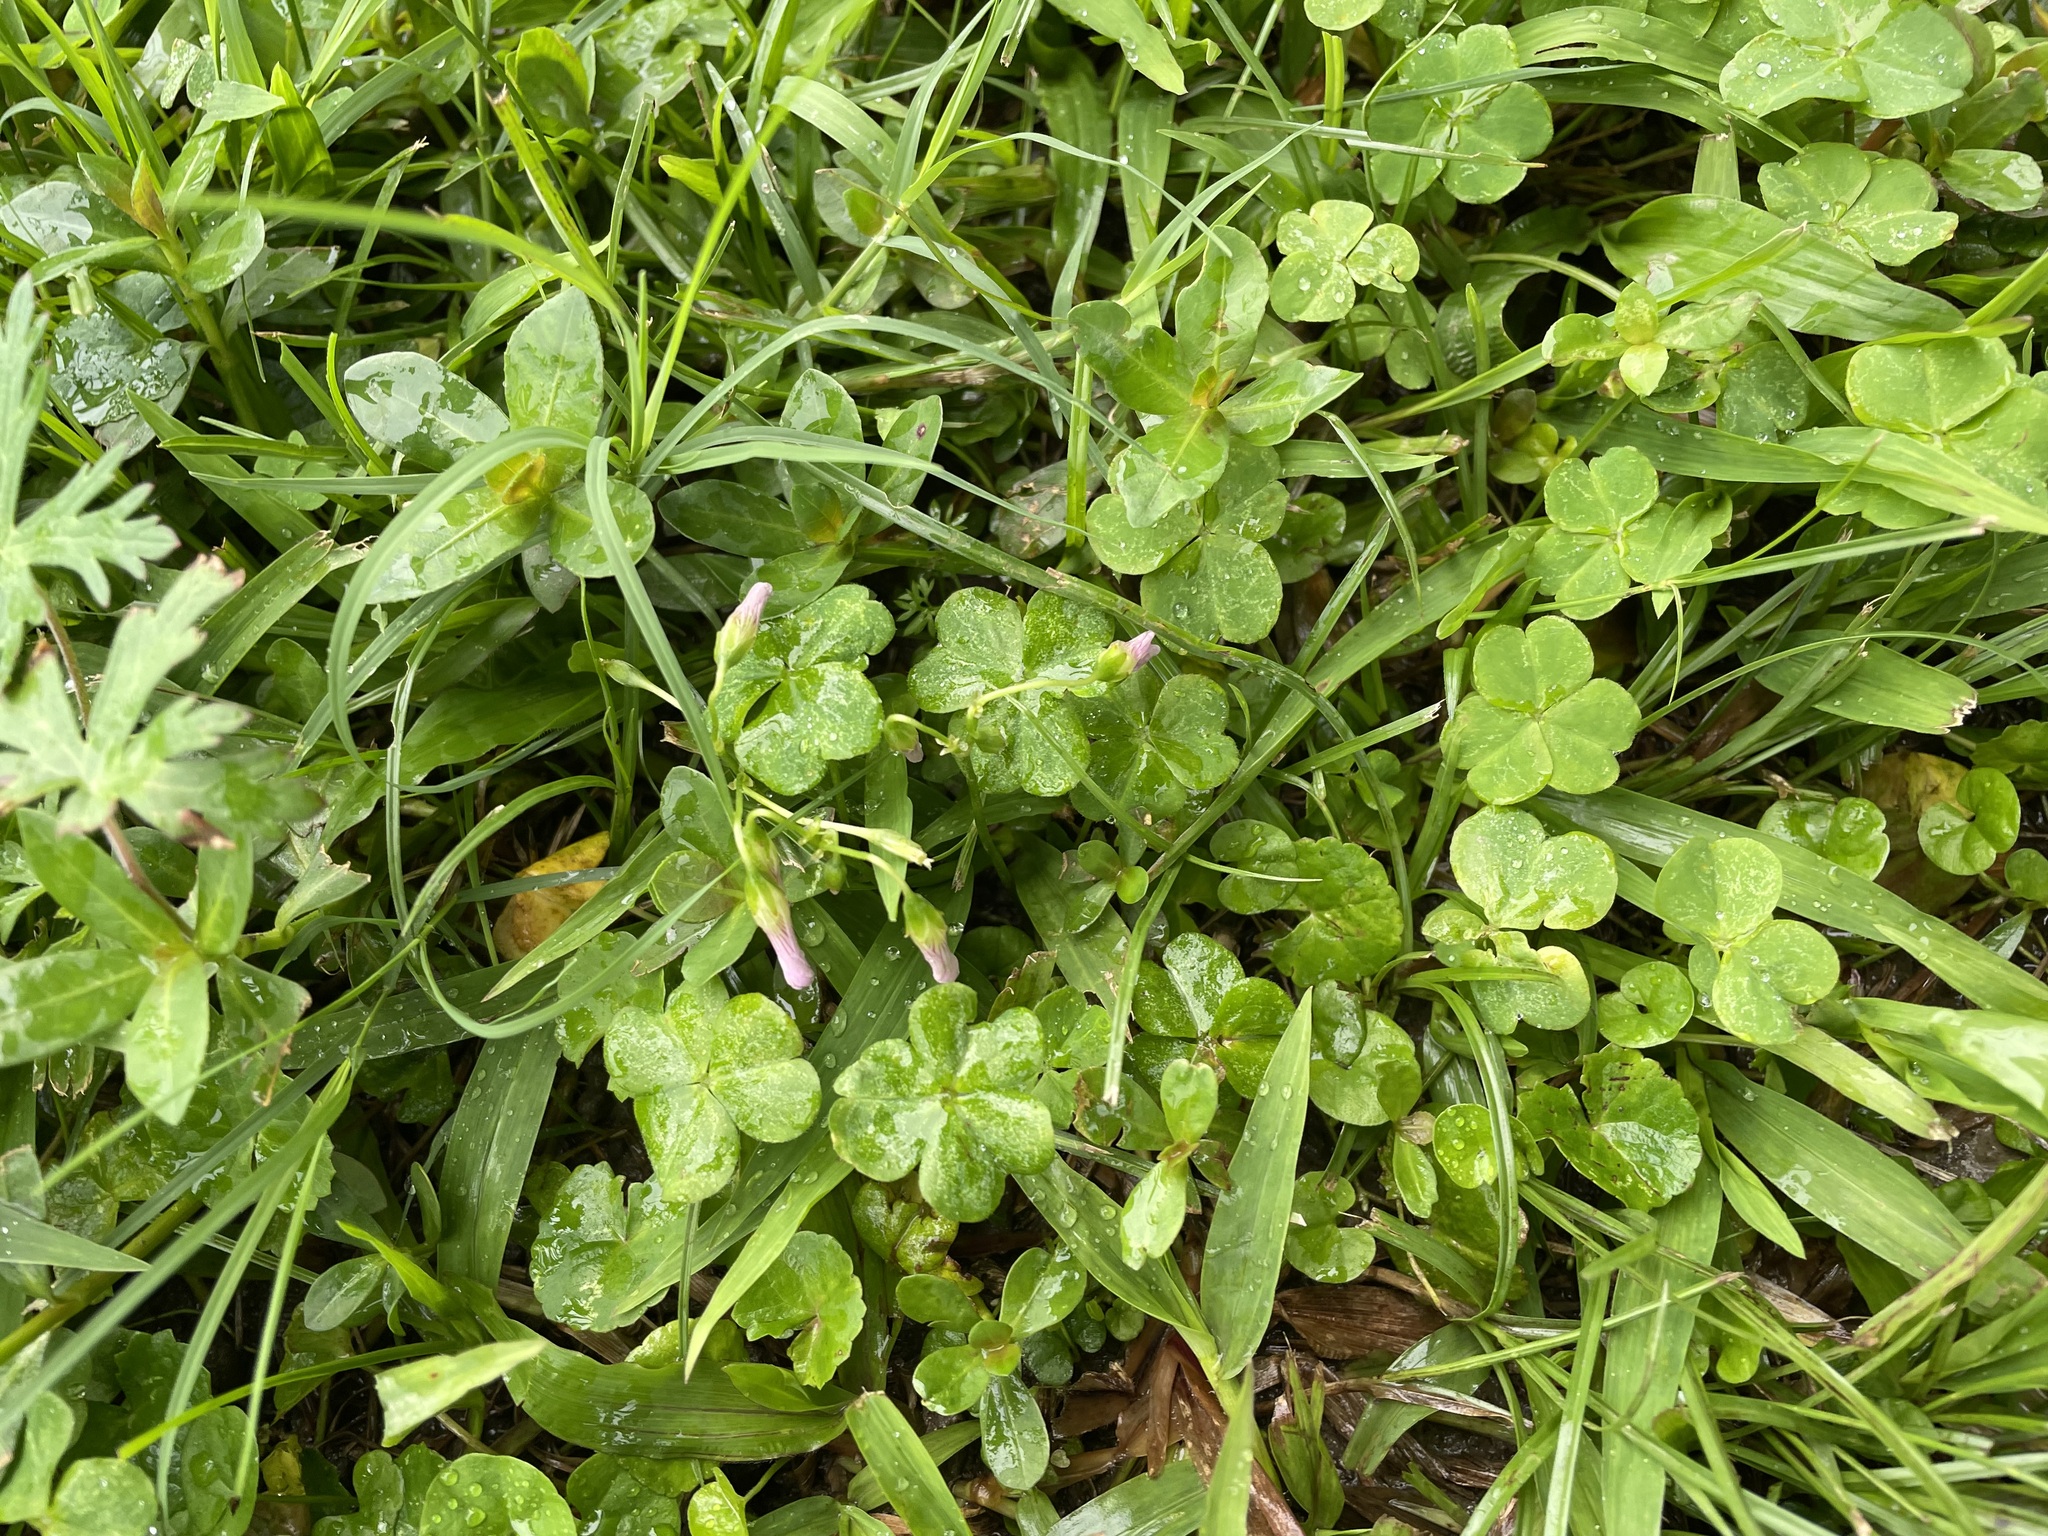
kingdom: Plantae
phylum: Tracheophyta
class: Magnoliopsida
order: Oxalidales
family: Oxalidaceae
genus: Oxalis
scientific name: Oxalis debilis
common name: Large-flowered pink-sorrel
